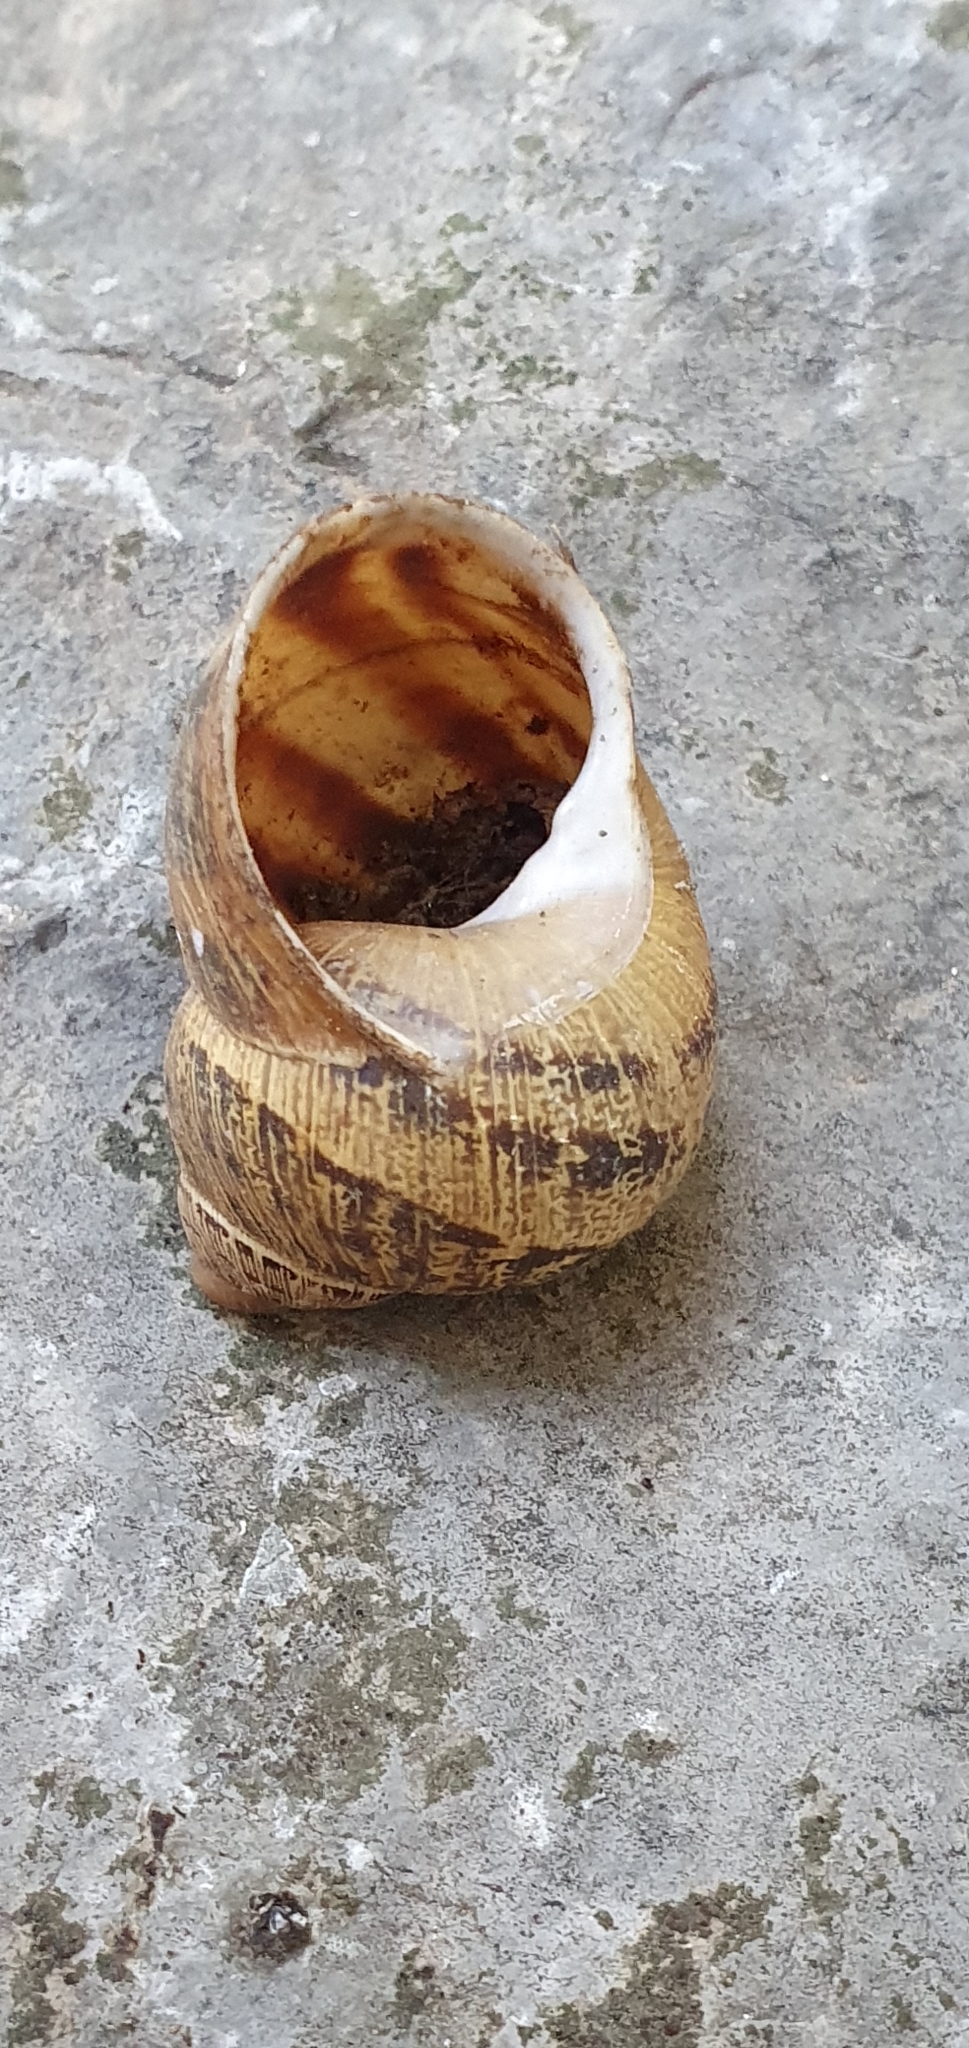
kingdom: Animalia
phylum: Mollusca
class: Gastropoda
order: Stylommatophora
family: Helicidae
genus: Cornu
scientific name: Cornu aspersum
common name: Brown garden snail
